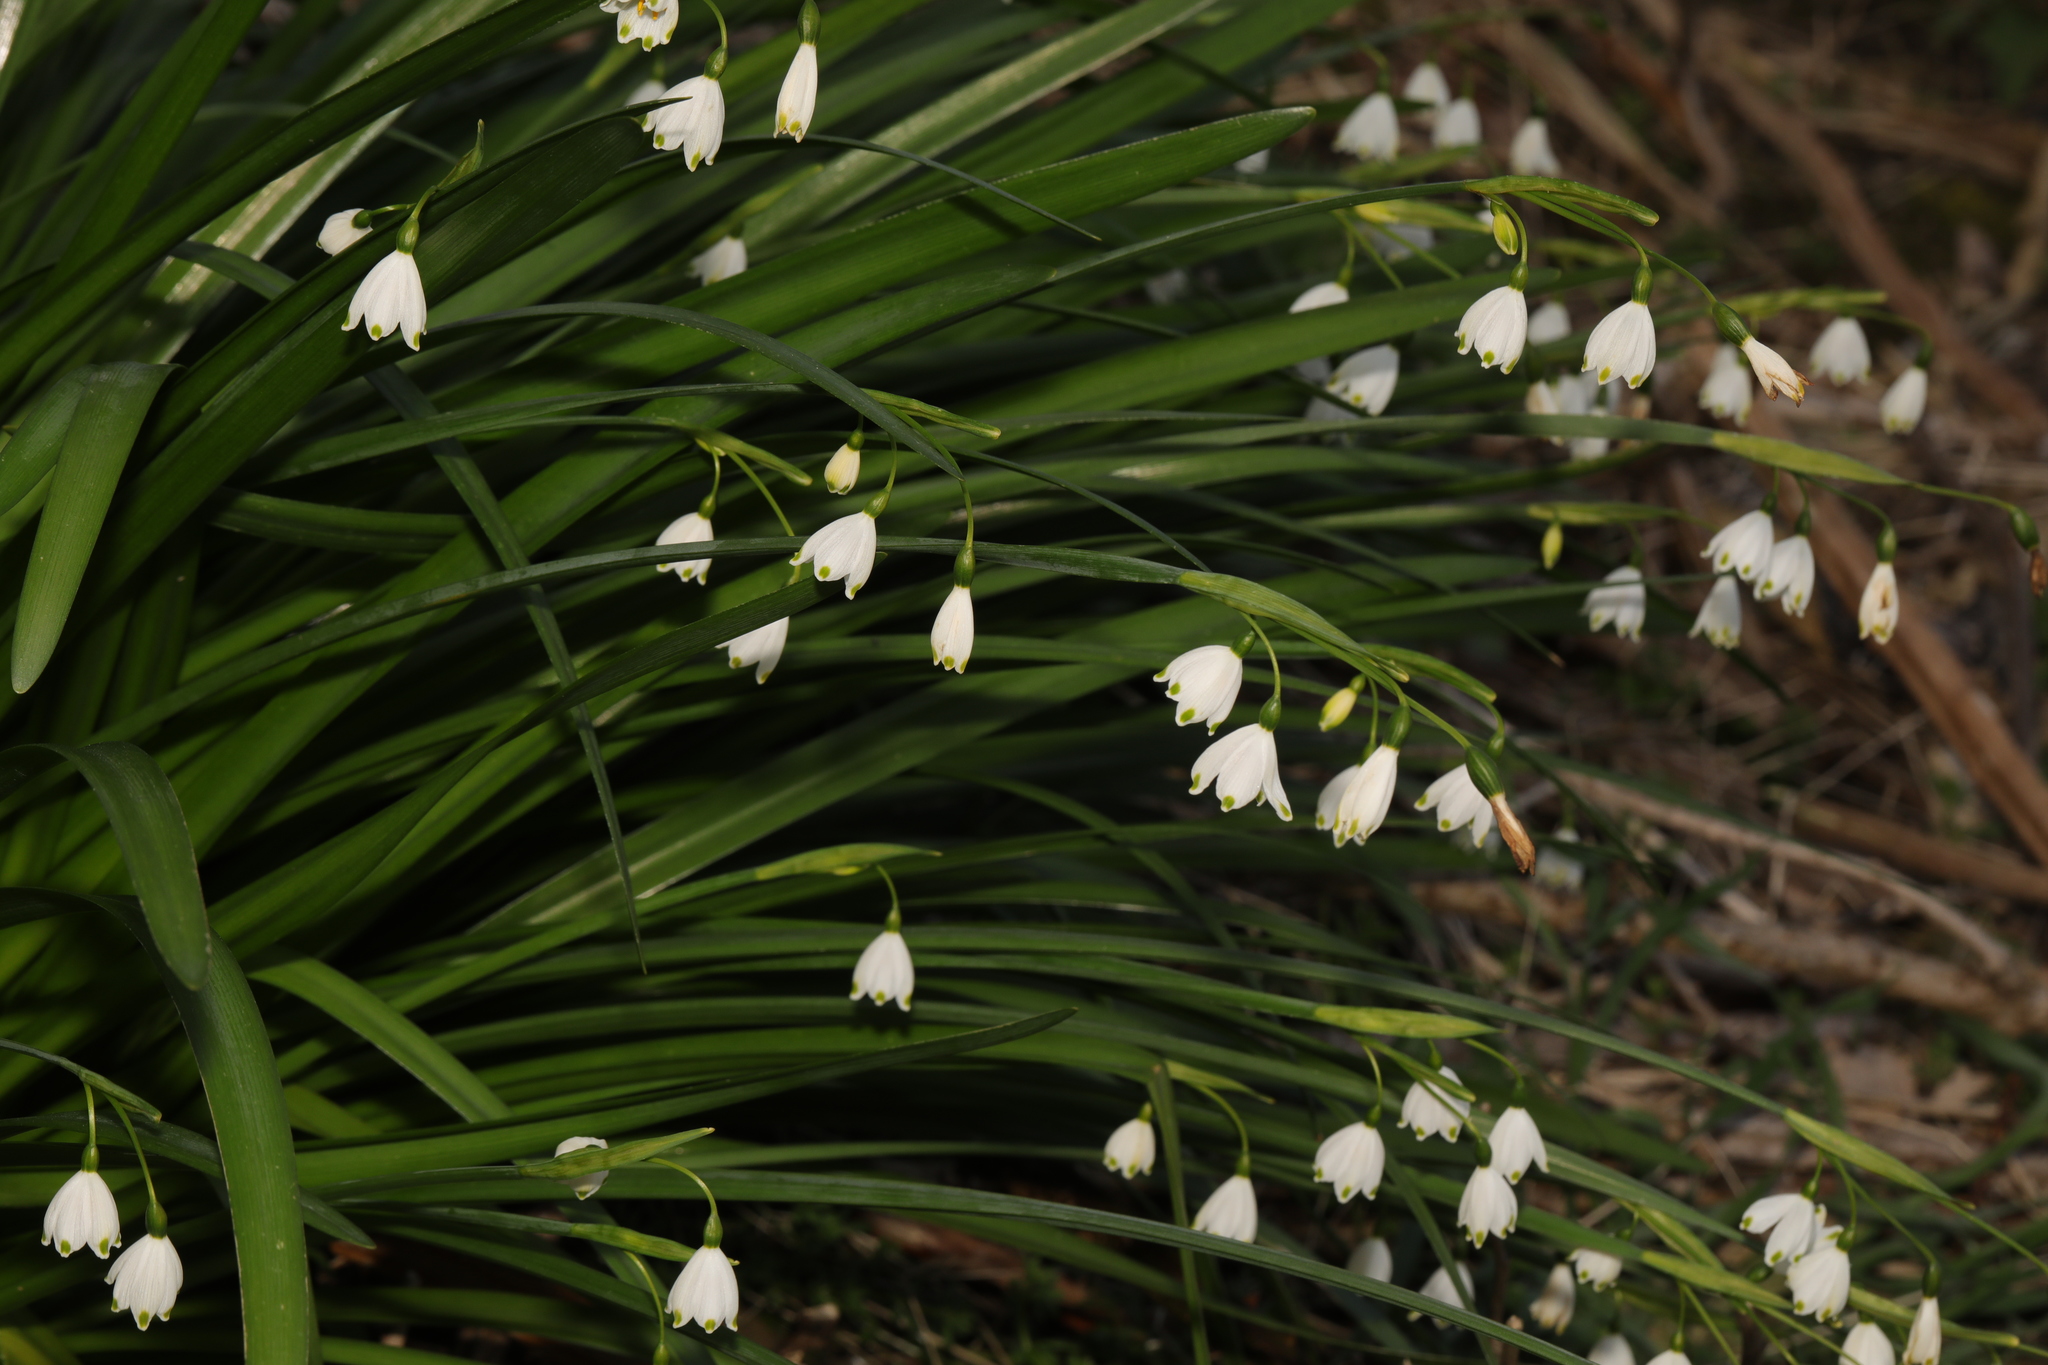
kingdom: Plantae
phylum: Tracheophyta
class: Liliopsida
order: Asparagales
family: Amaryllidaceae
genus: Leucojum
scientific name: Leucojum aestivum
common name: Summer snowflake
